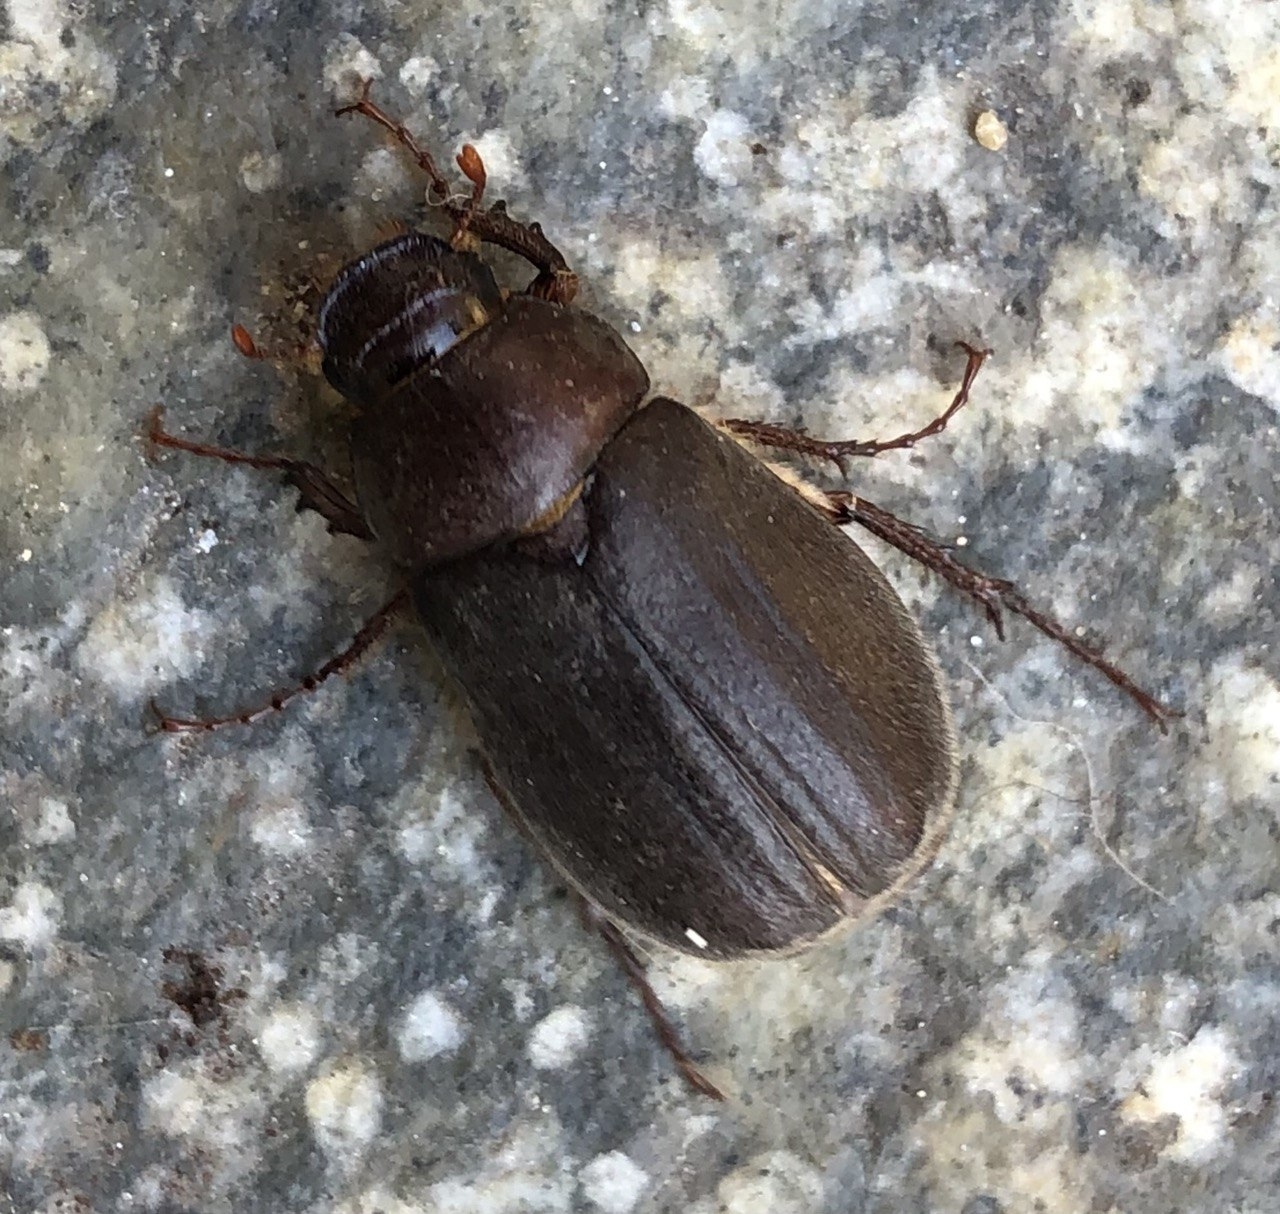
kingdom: Animalia
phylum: Arthropoda
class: Insecta
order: Coleoptera
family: Scarabaeidae
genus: Aplidia
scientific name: Aplidia transversa
